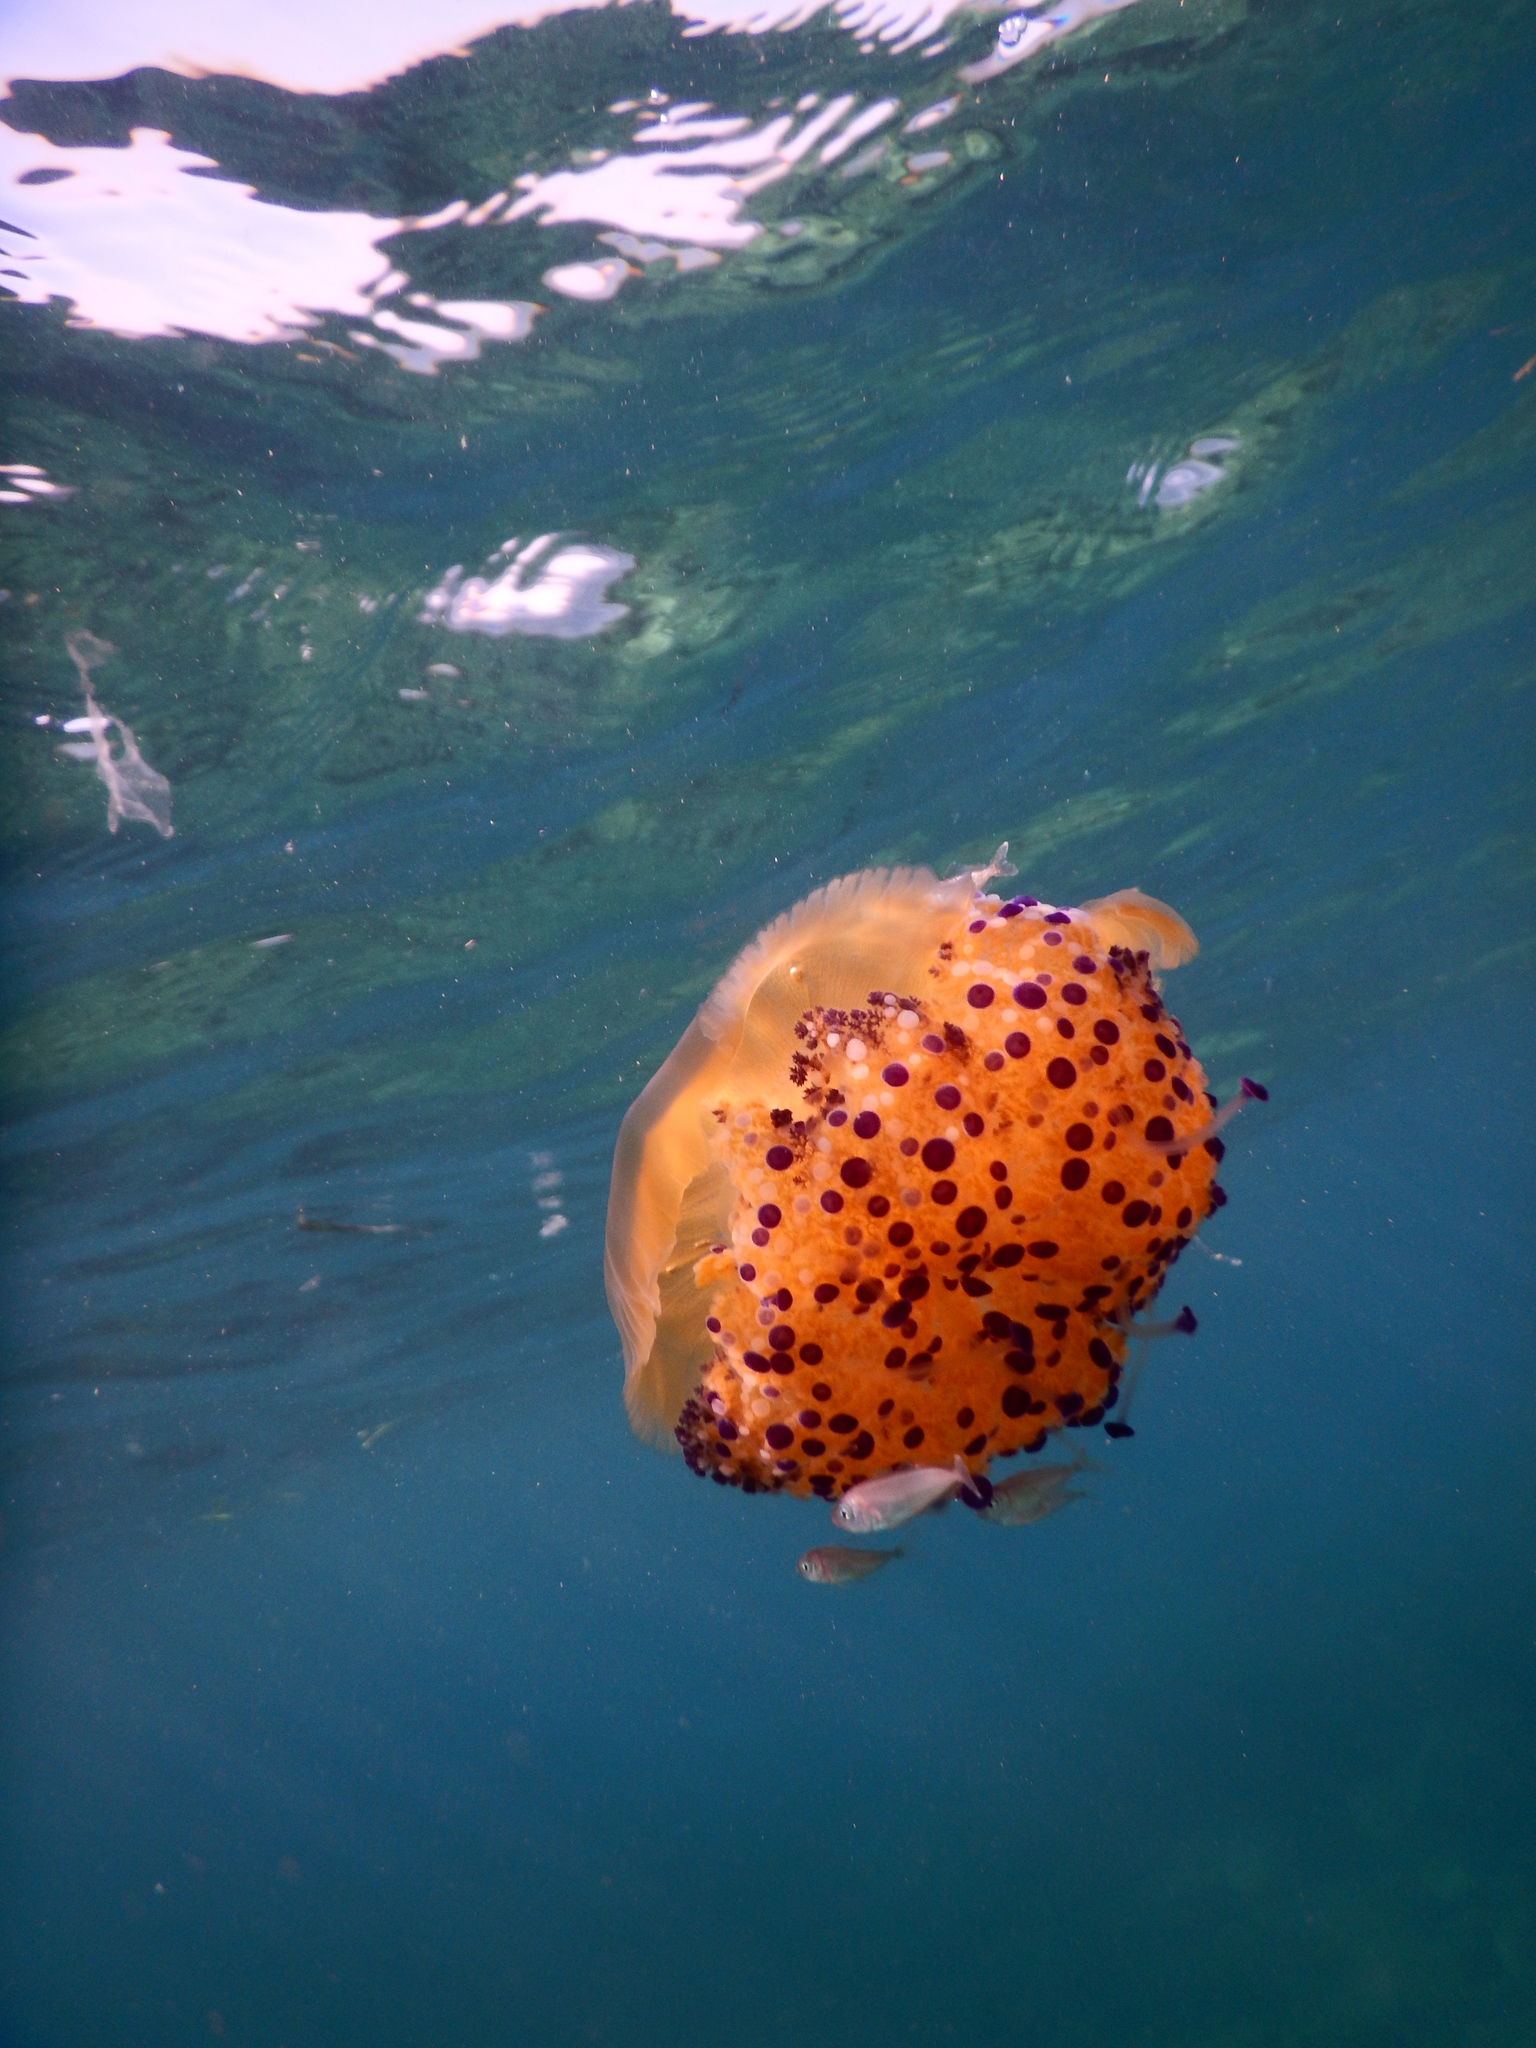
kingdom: Animalia
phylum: Cnidaria
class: Scyphozoa
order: Rhizostomeae
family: Cepheidae
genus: Cotylorhiza
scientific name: Cotylorhiza tuberculata
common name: Mediterranean jelly
